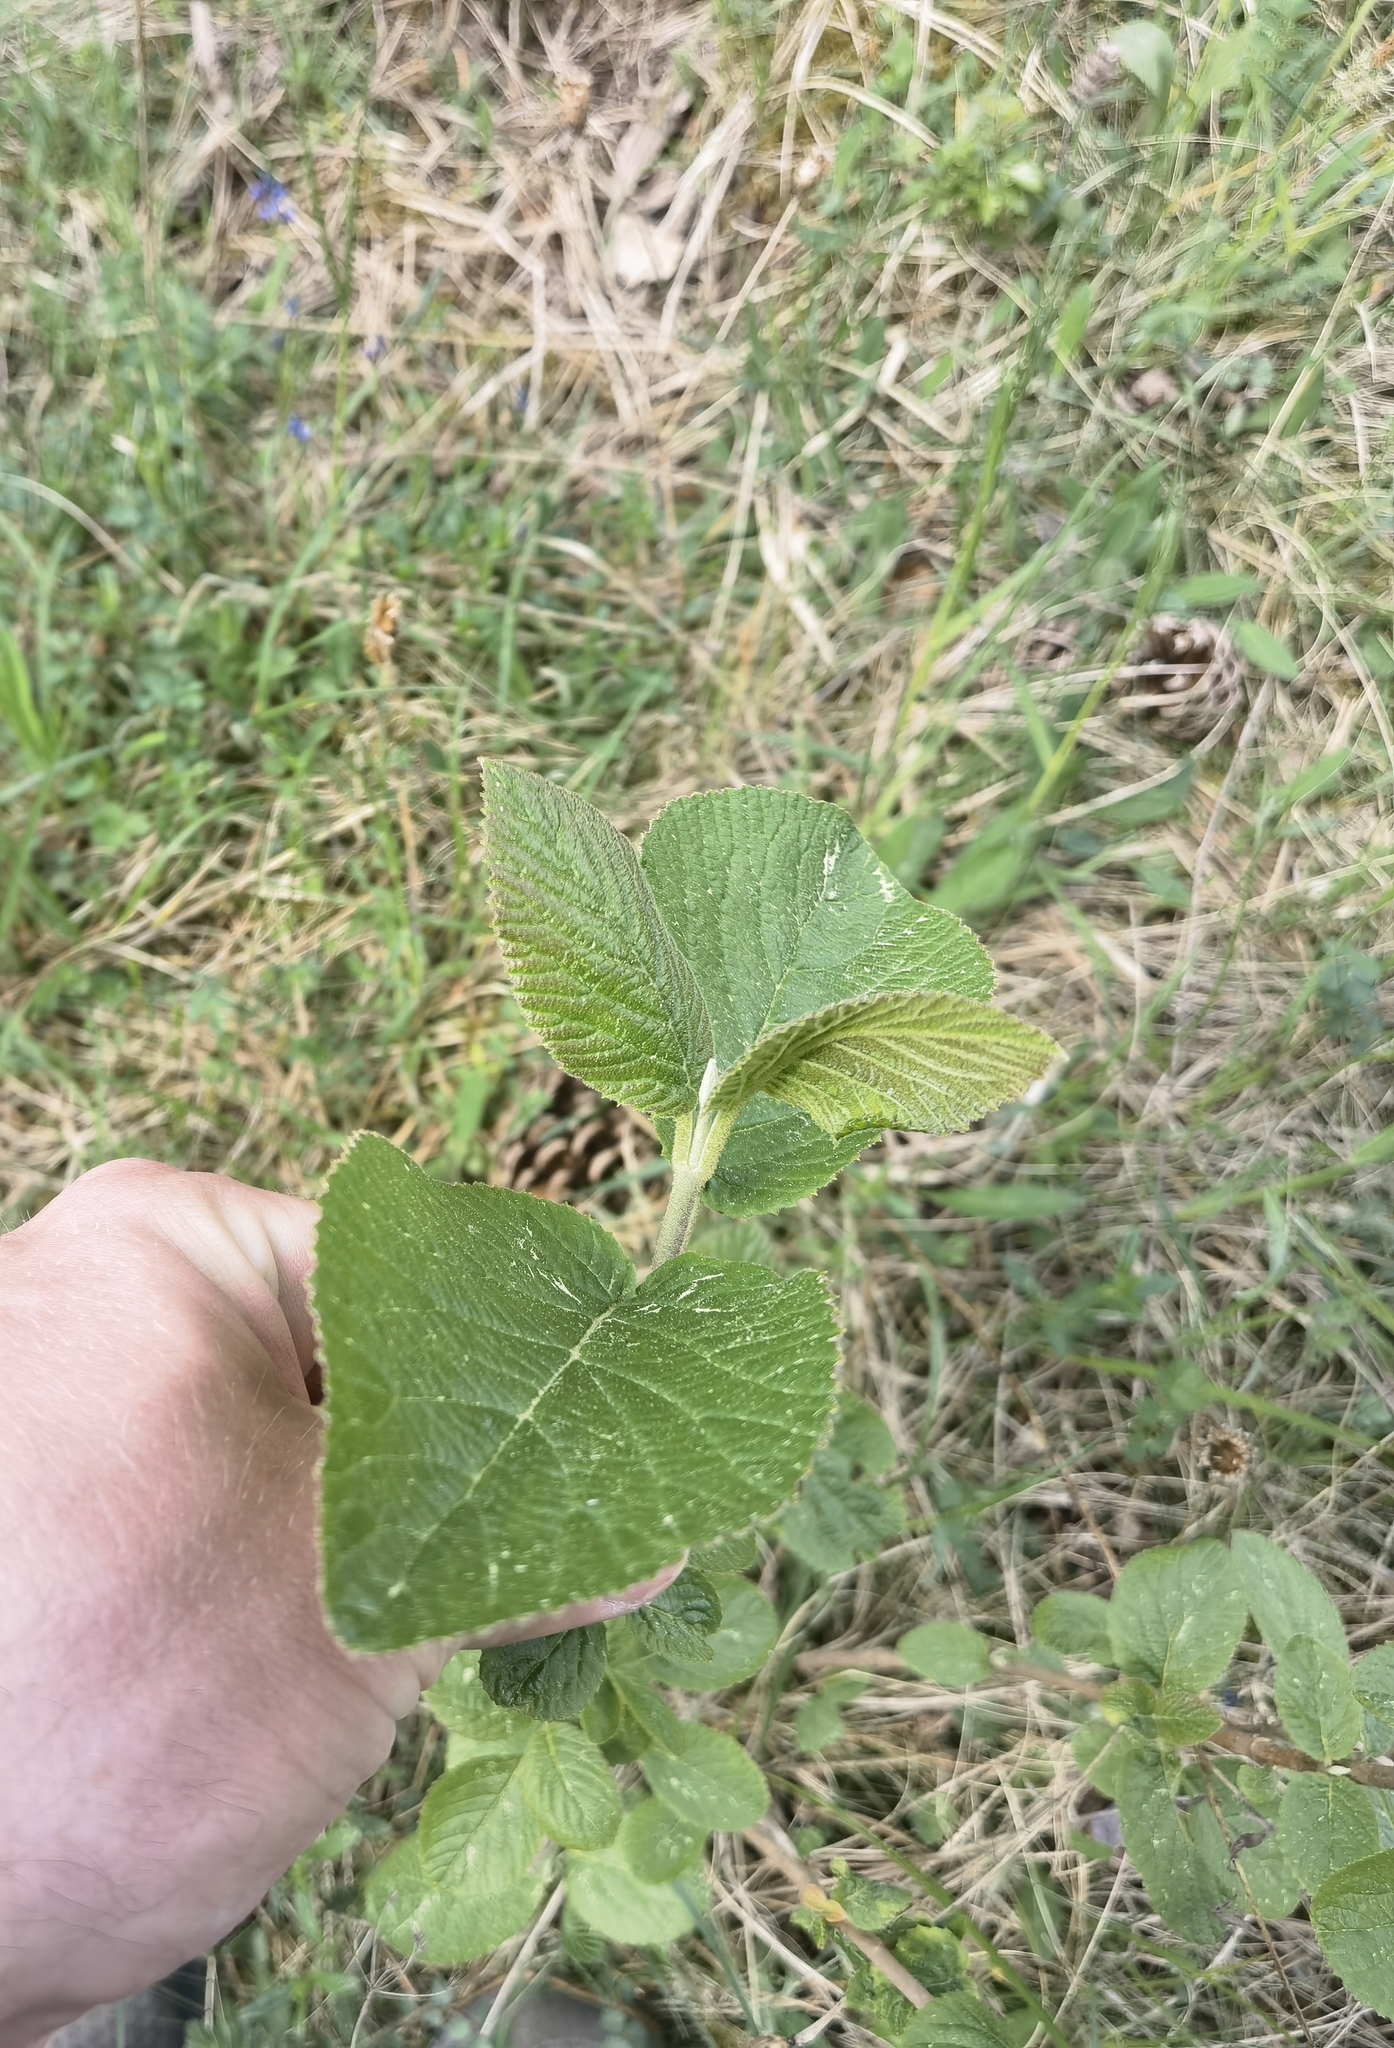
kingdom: Plantae
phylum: Tracheophyta
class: Magnoliopsida
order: Dipsacales
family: Viburnaceae
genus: Viburnum
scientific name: Viburnum lantana
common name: Wayfaring tree
